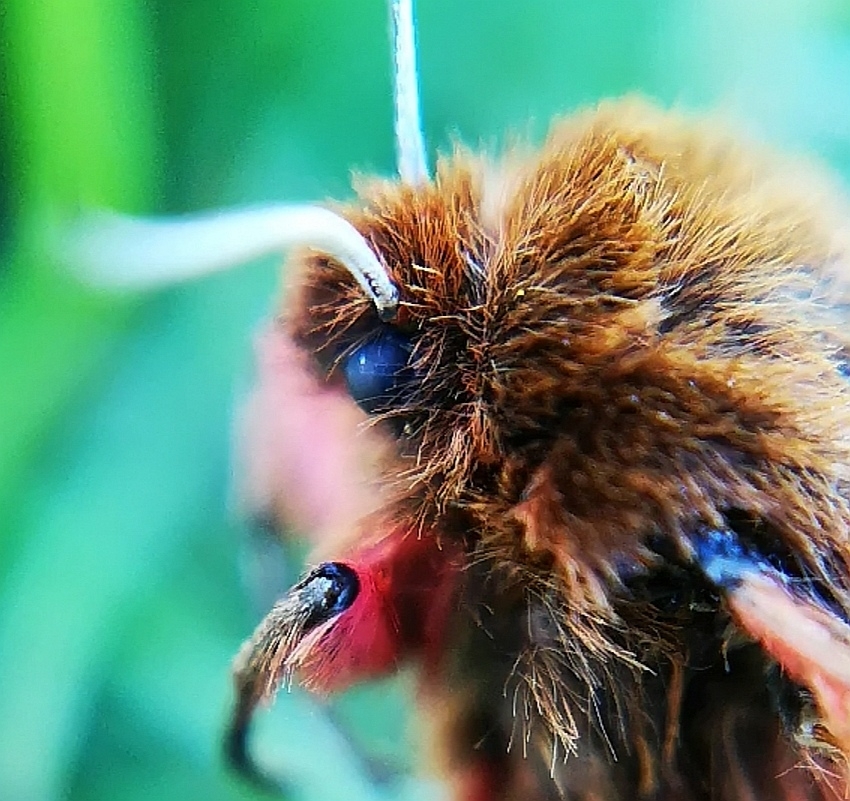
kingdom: Animalia
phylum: Arthropoda
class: Insecta
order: Lepidoptera
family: Erebidae
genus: Phragmatobia
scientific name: Phragmatobia fuliginosa
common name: Ruby tiger
